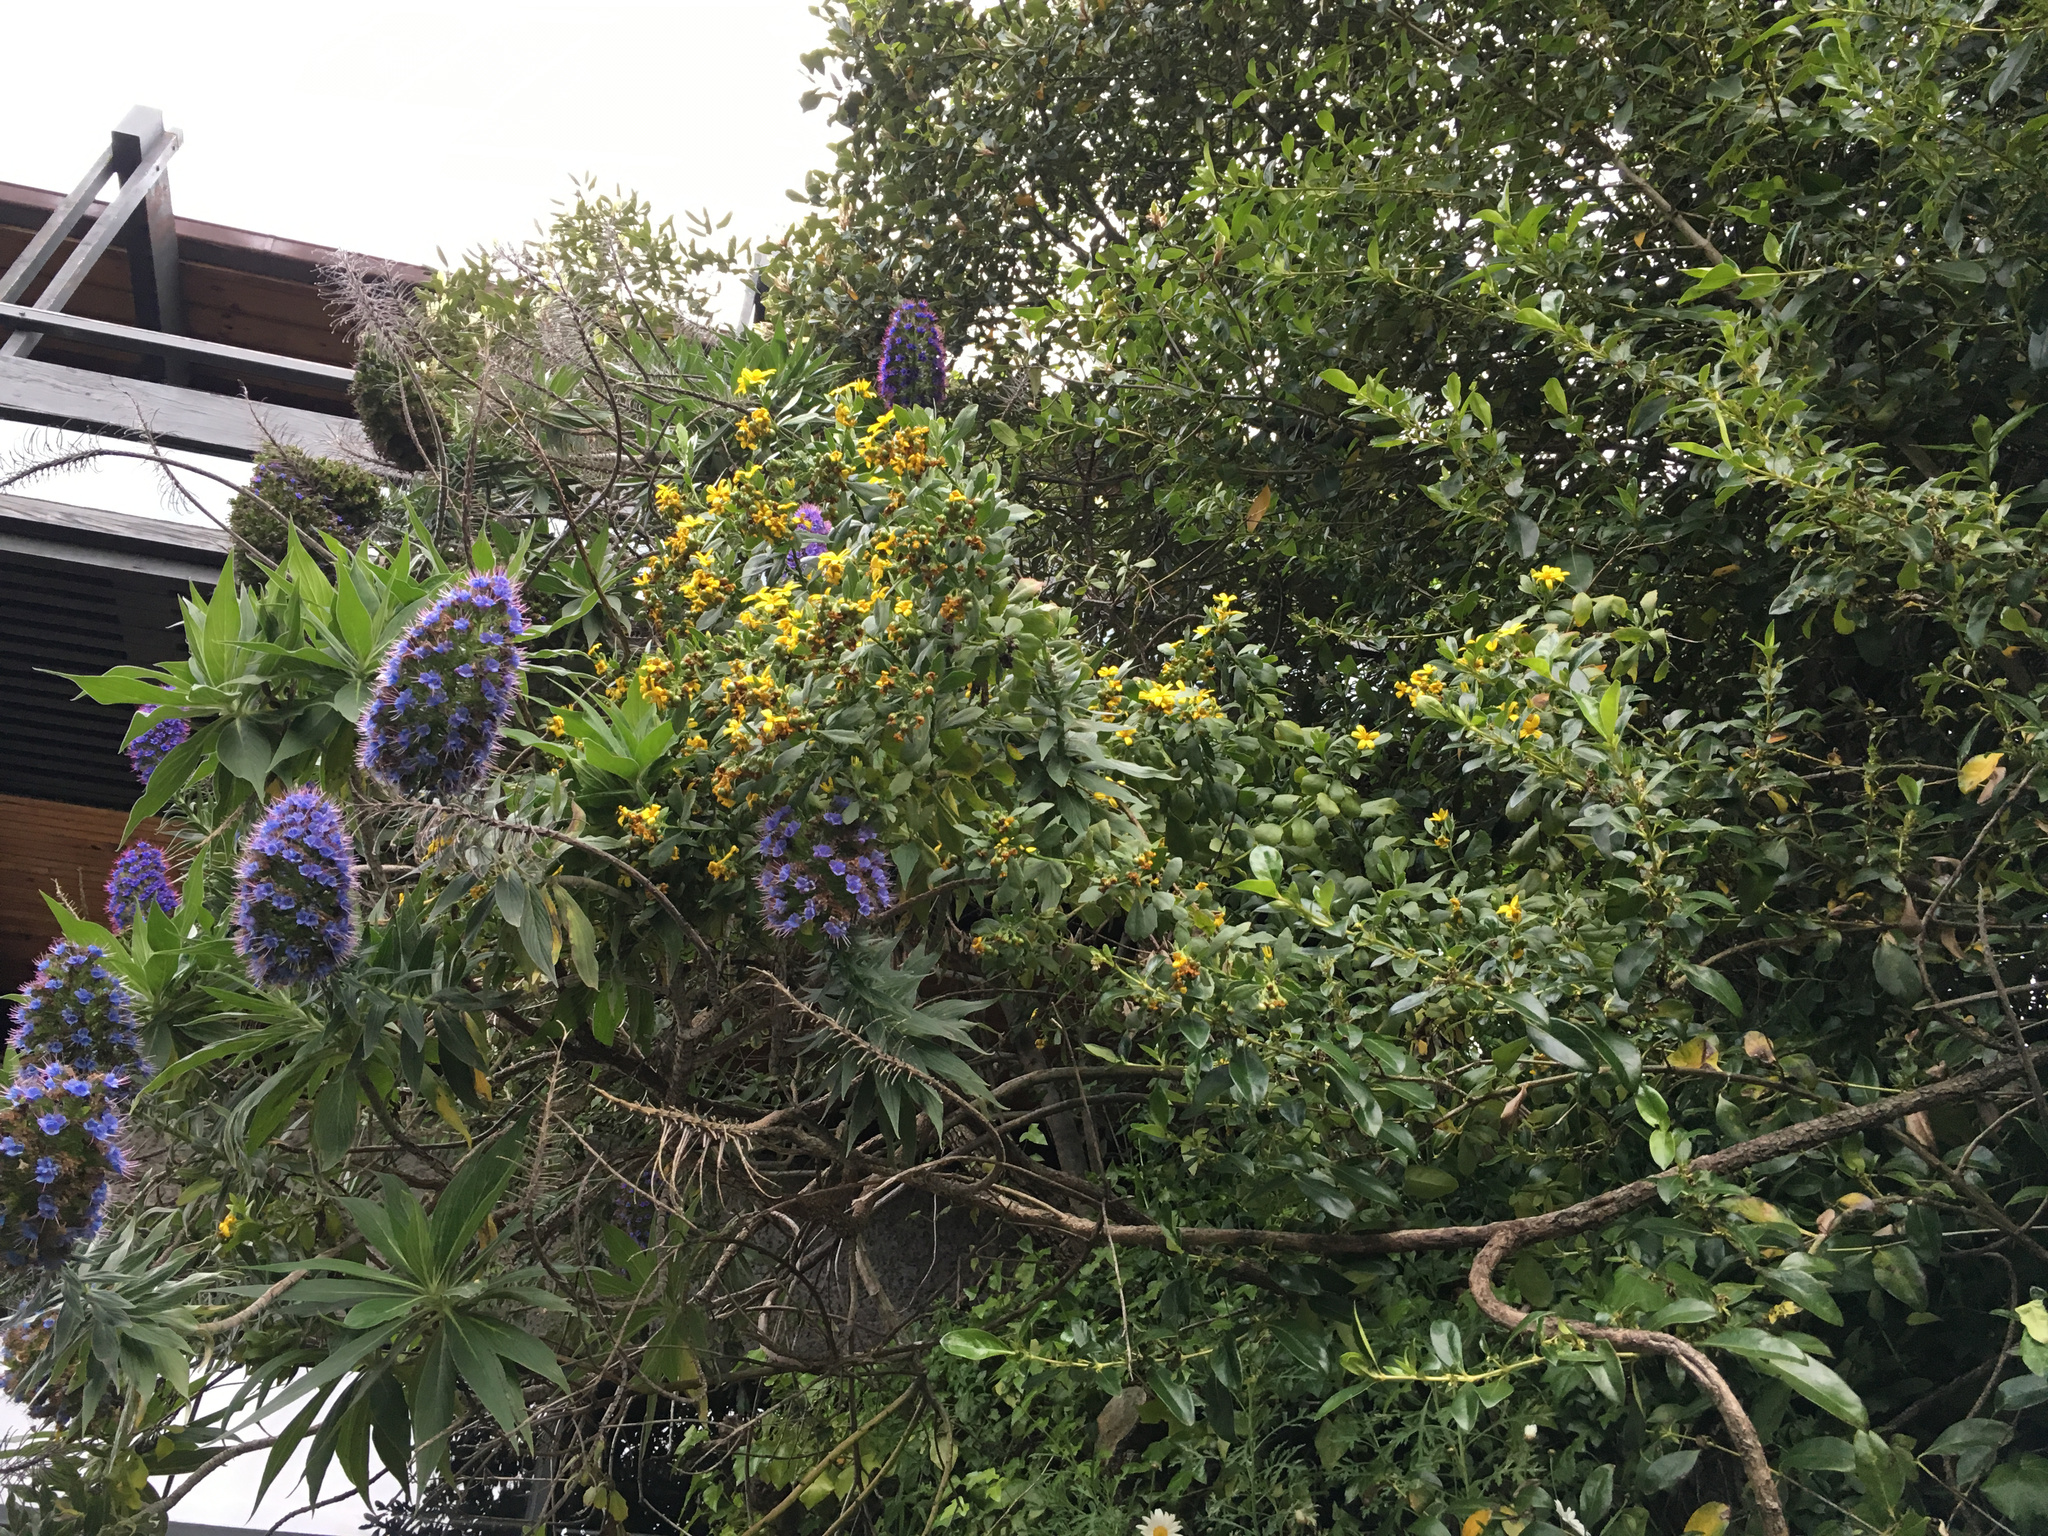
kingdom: Plantae
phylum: Tracheophyta
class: Magnoliopsida
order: Asterales
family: Asteraceae
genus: Osteospermum
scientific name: Osteospermum moniliferum
